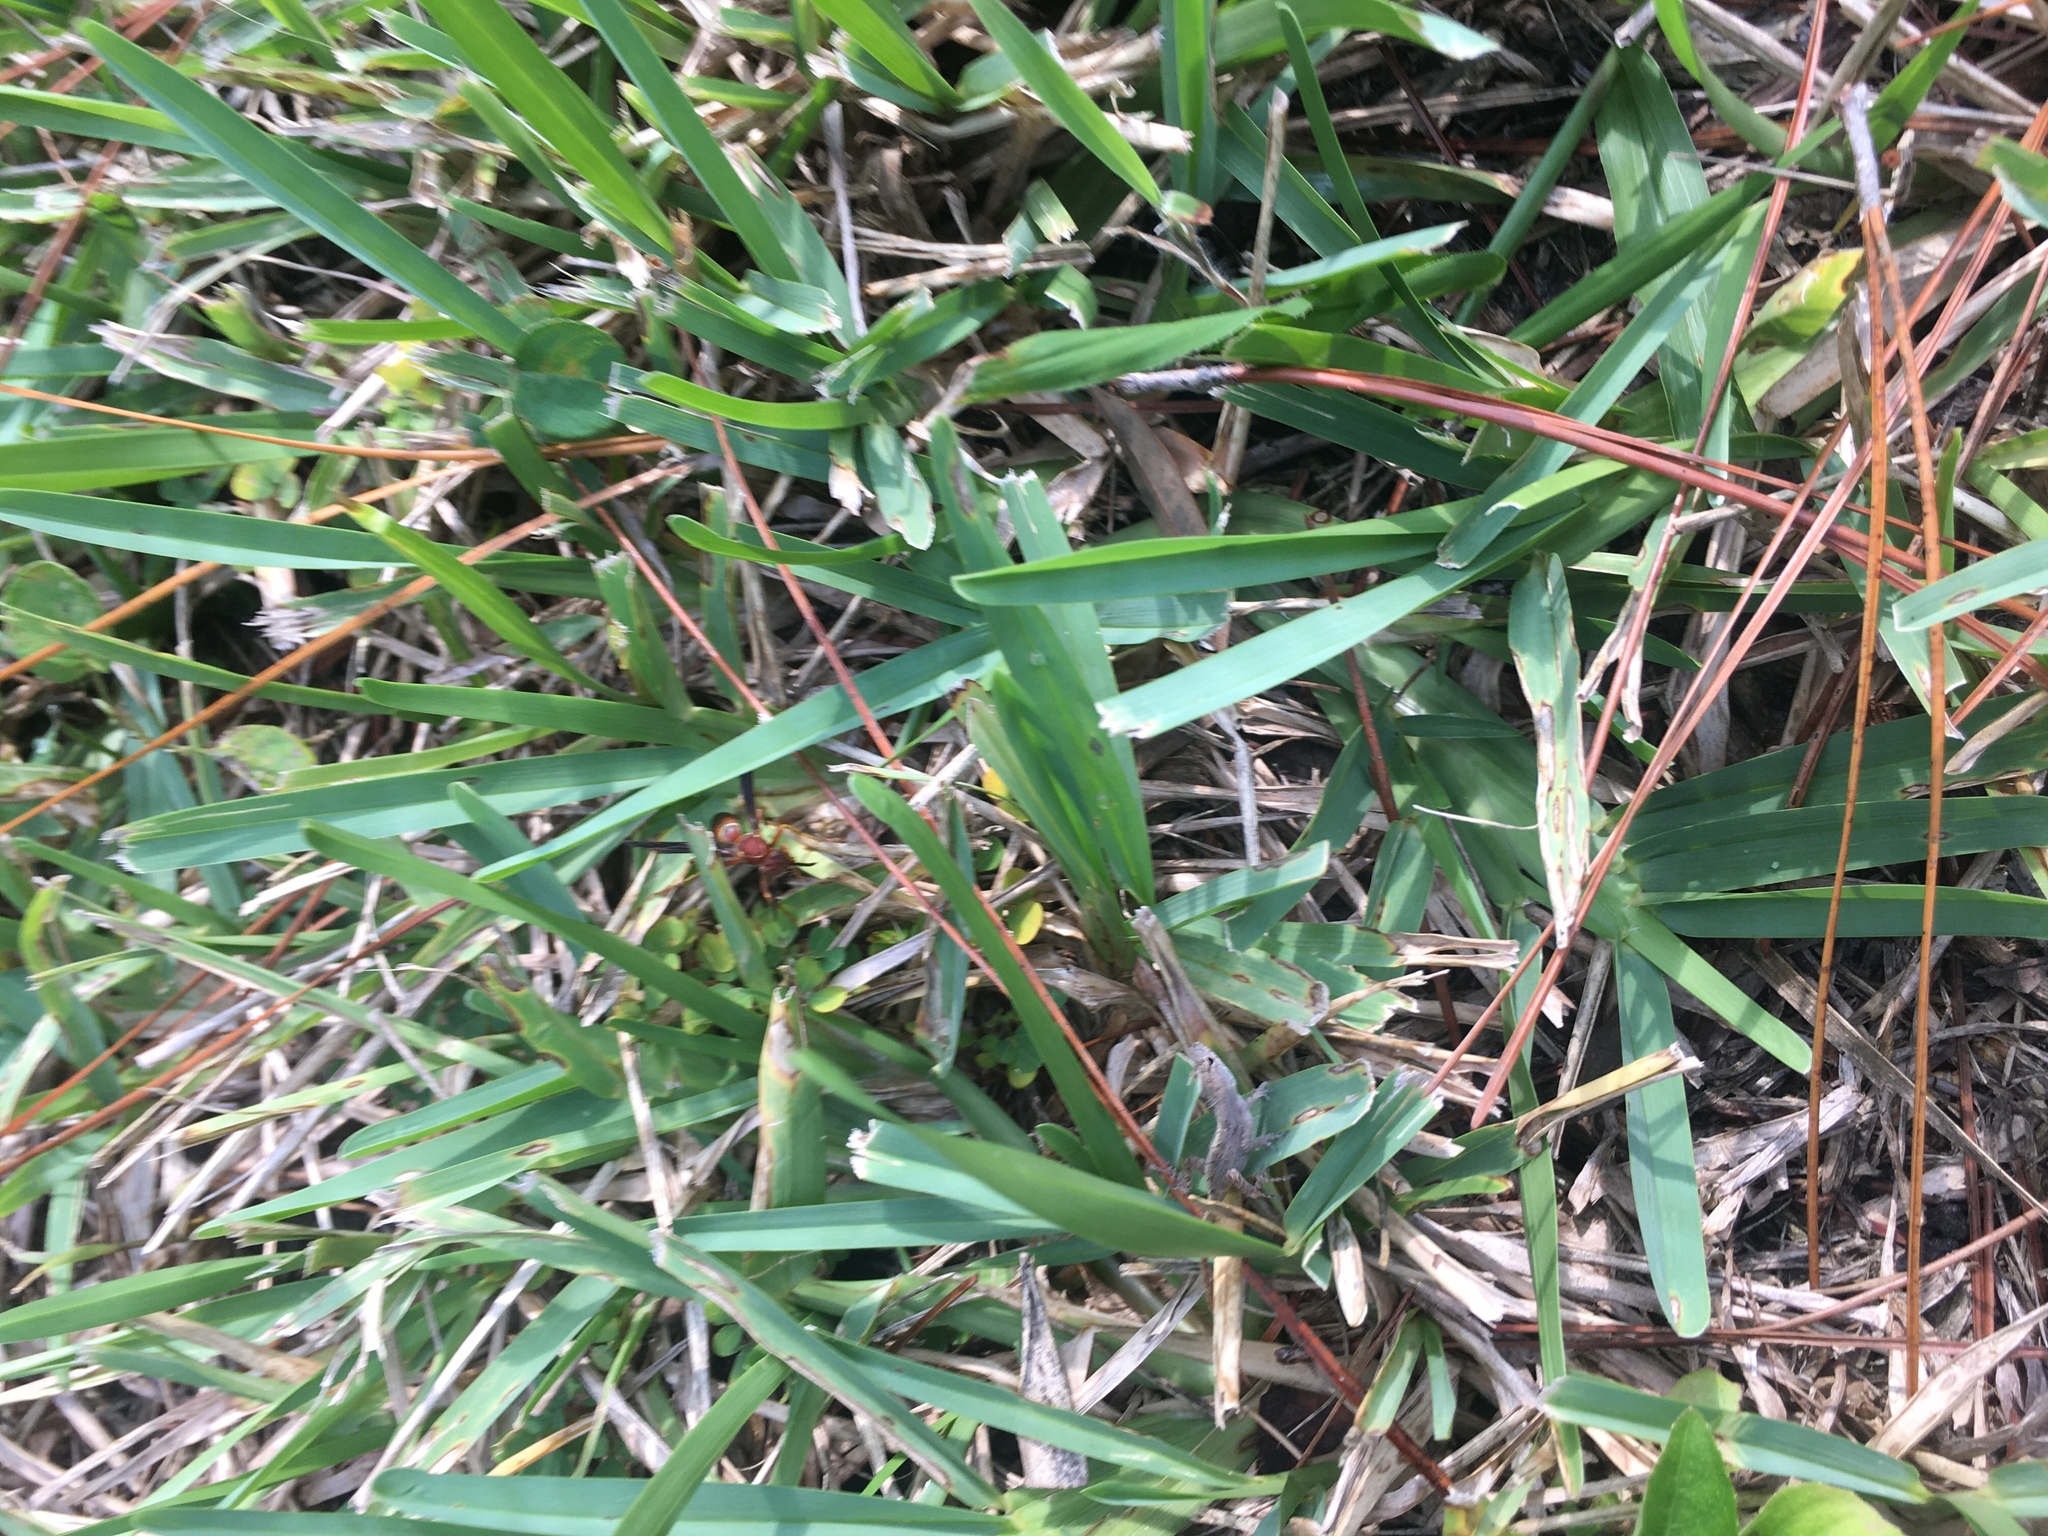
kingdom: Animalia
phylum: Arthropoda
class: Insecta
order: Hymenoptera
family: Vespidae
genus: Fuscopolistes
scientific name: Fuscopolistes
